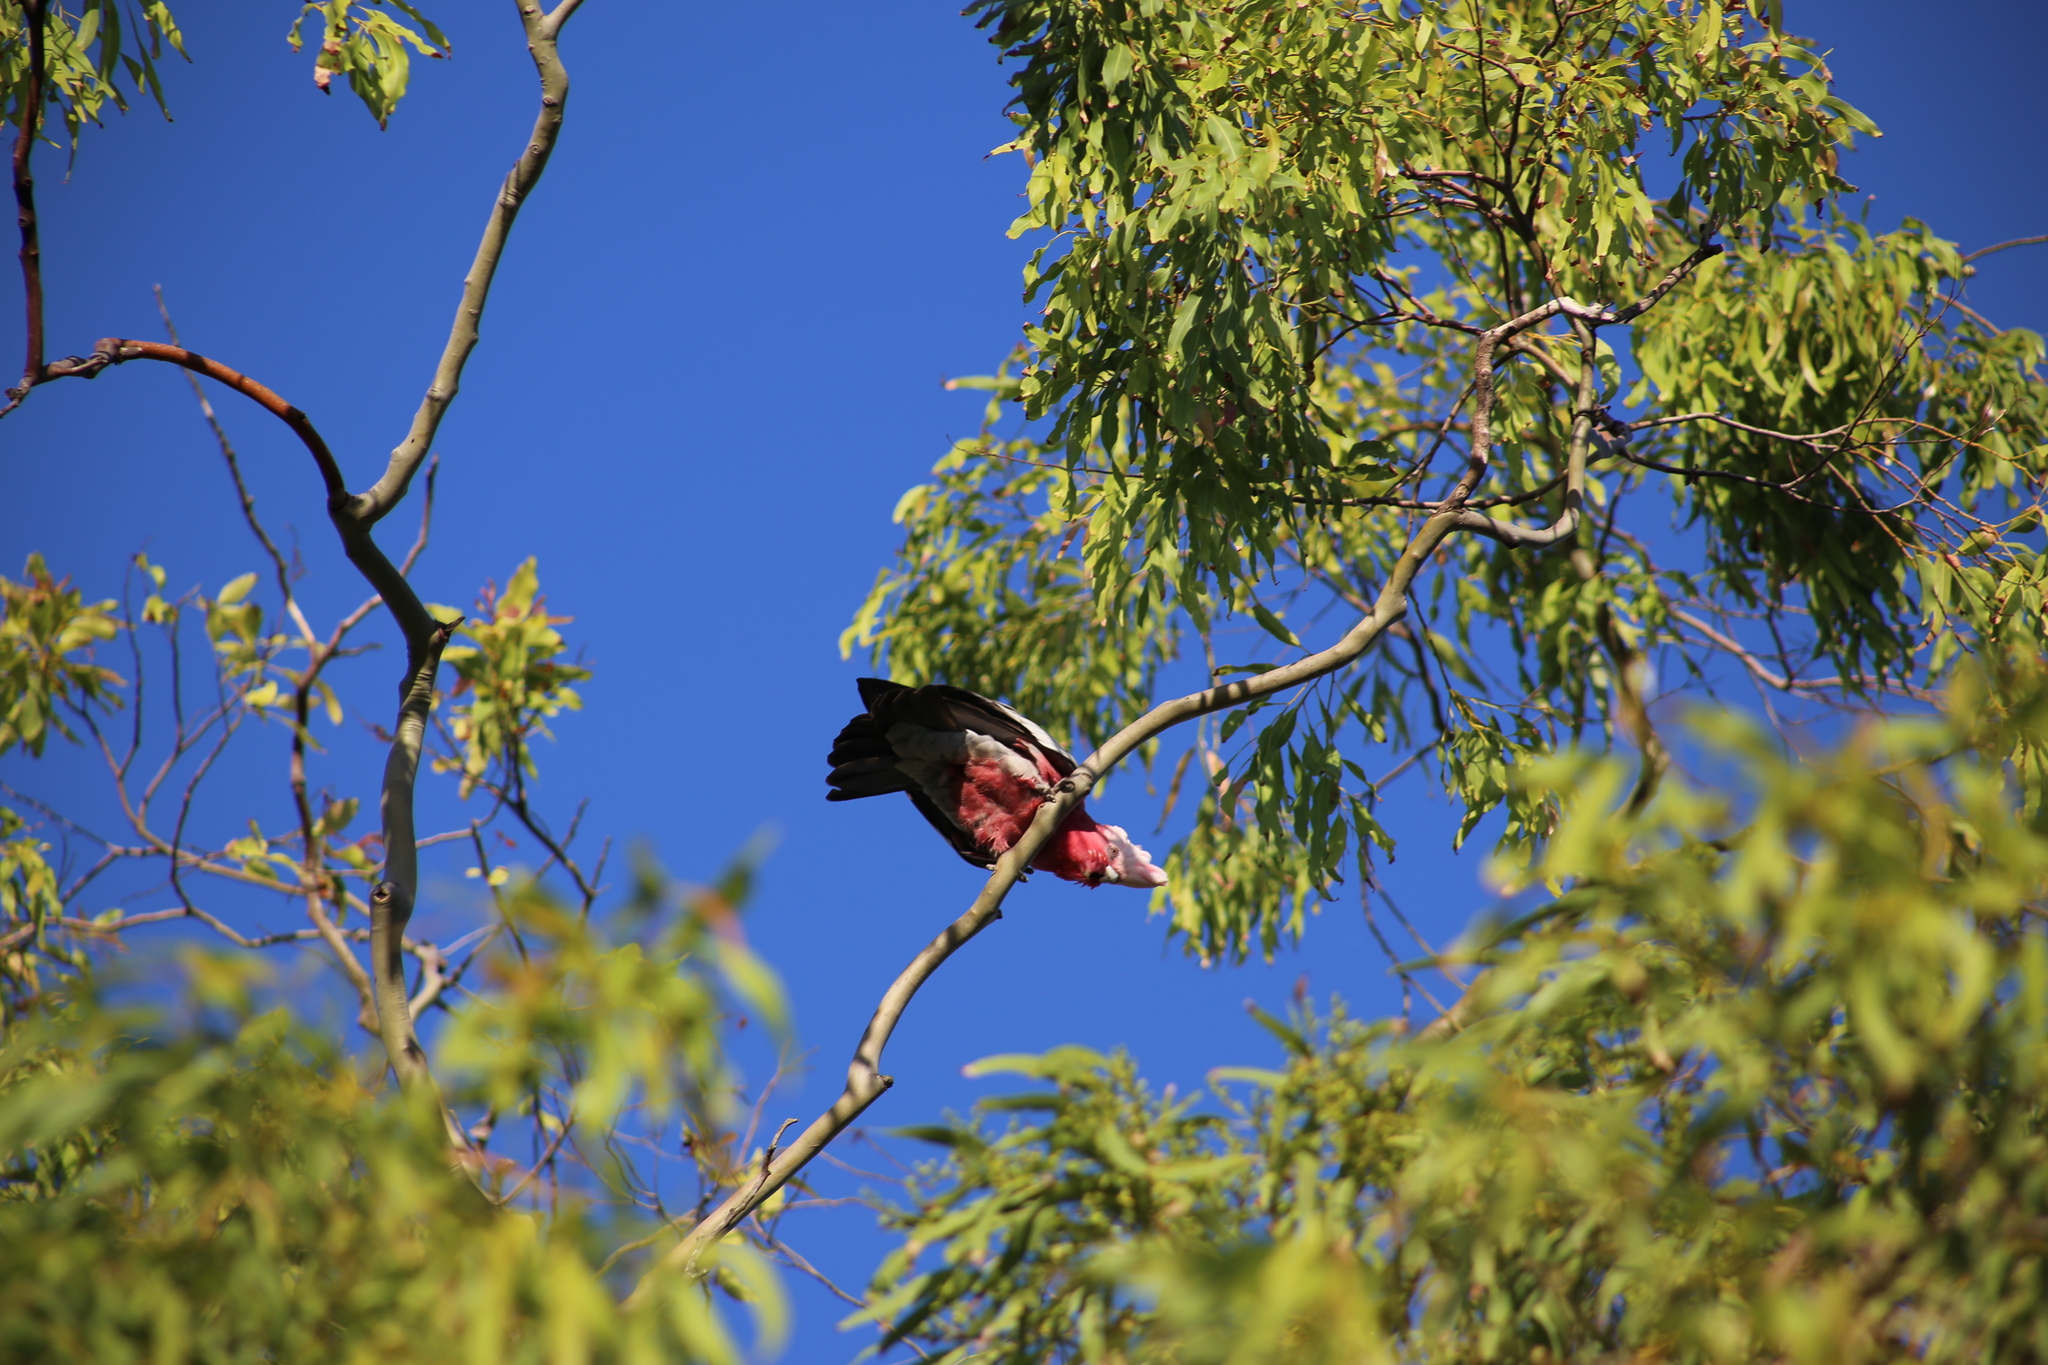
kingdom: Animalia
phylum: Chordata
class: Aves
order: Psittaciformes
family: Psittacidae
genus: Eolophus
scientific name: Eolophus roseicapilla
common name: Galah
